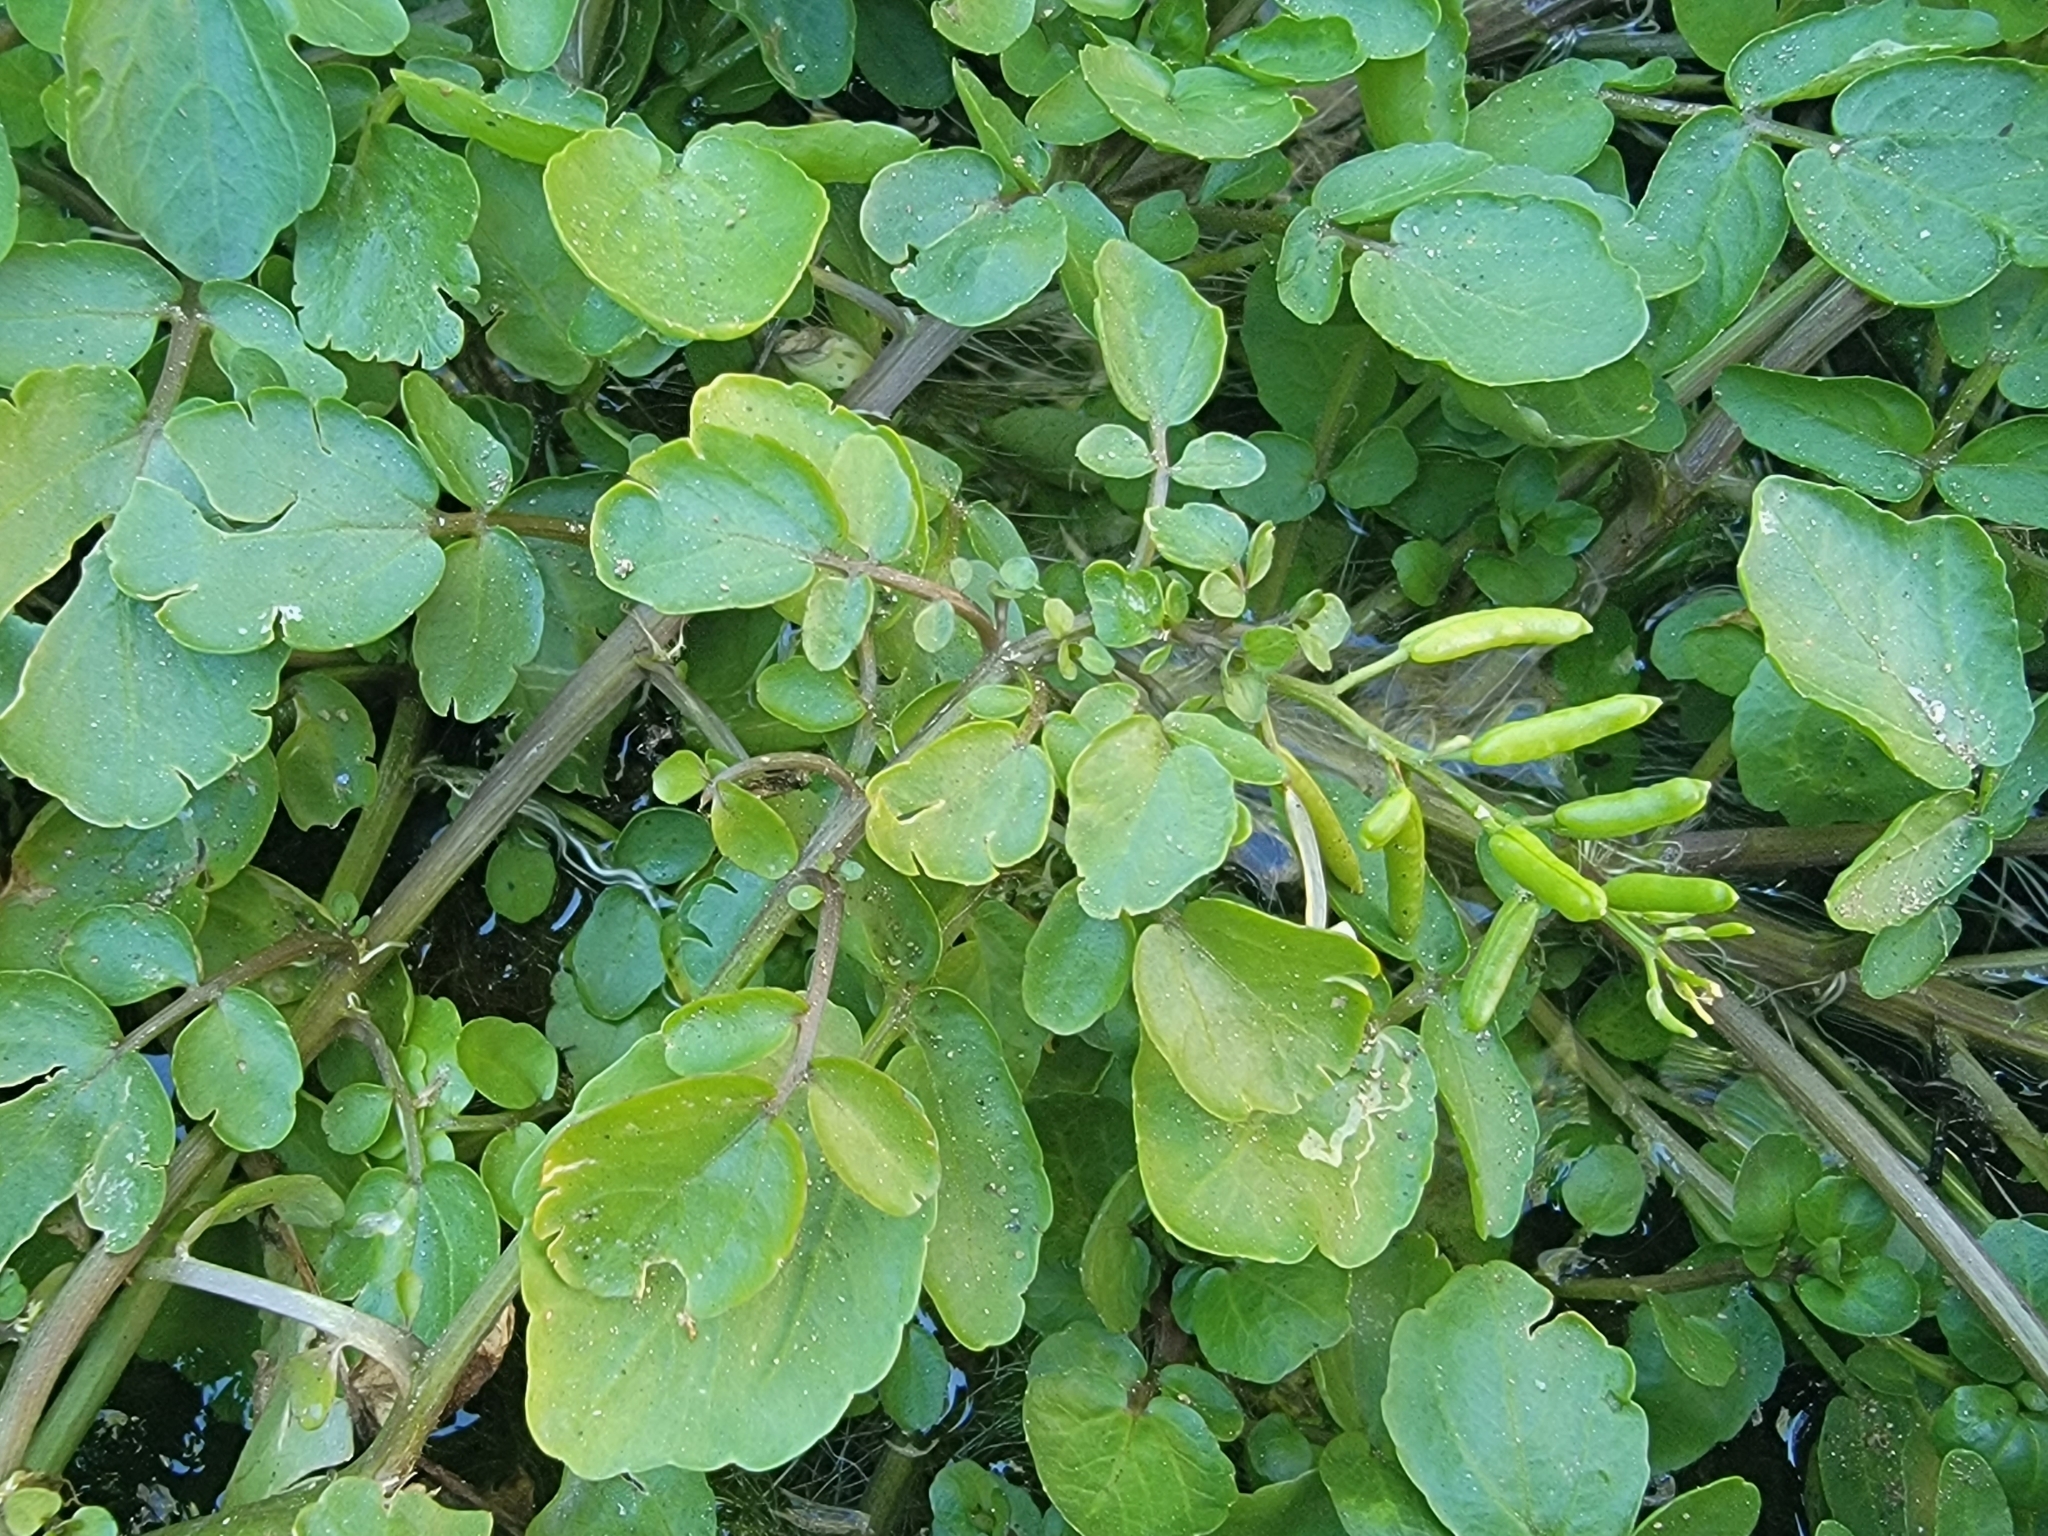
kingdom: Plantae
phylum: Tracheophyta
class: Magnoliopsida
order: Brassicales
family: Brassicaceae
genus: Nasturtium
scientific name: Nasturtium officinale
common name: Watercress
